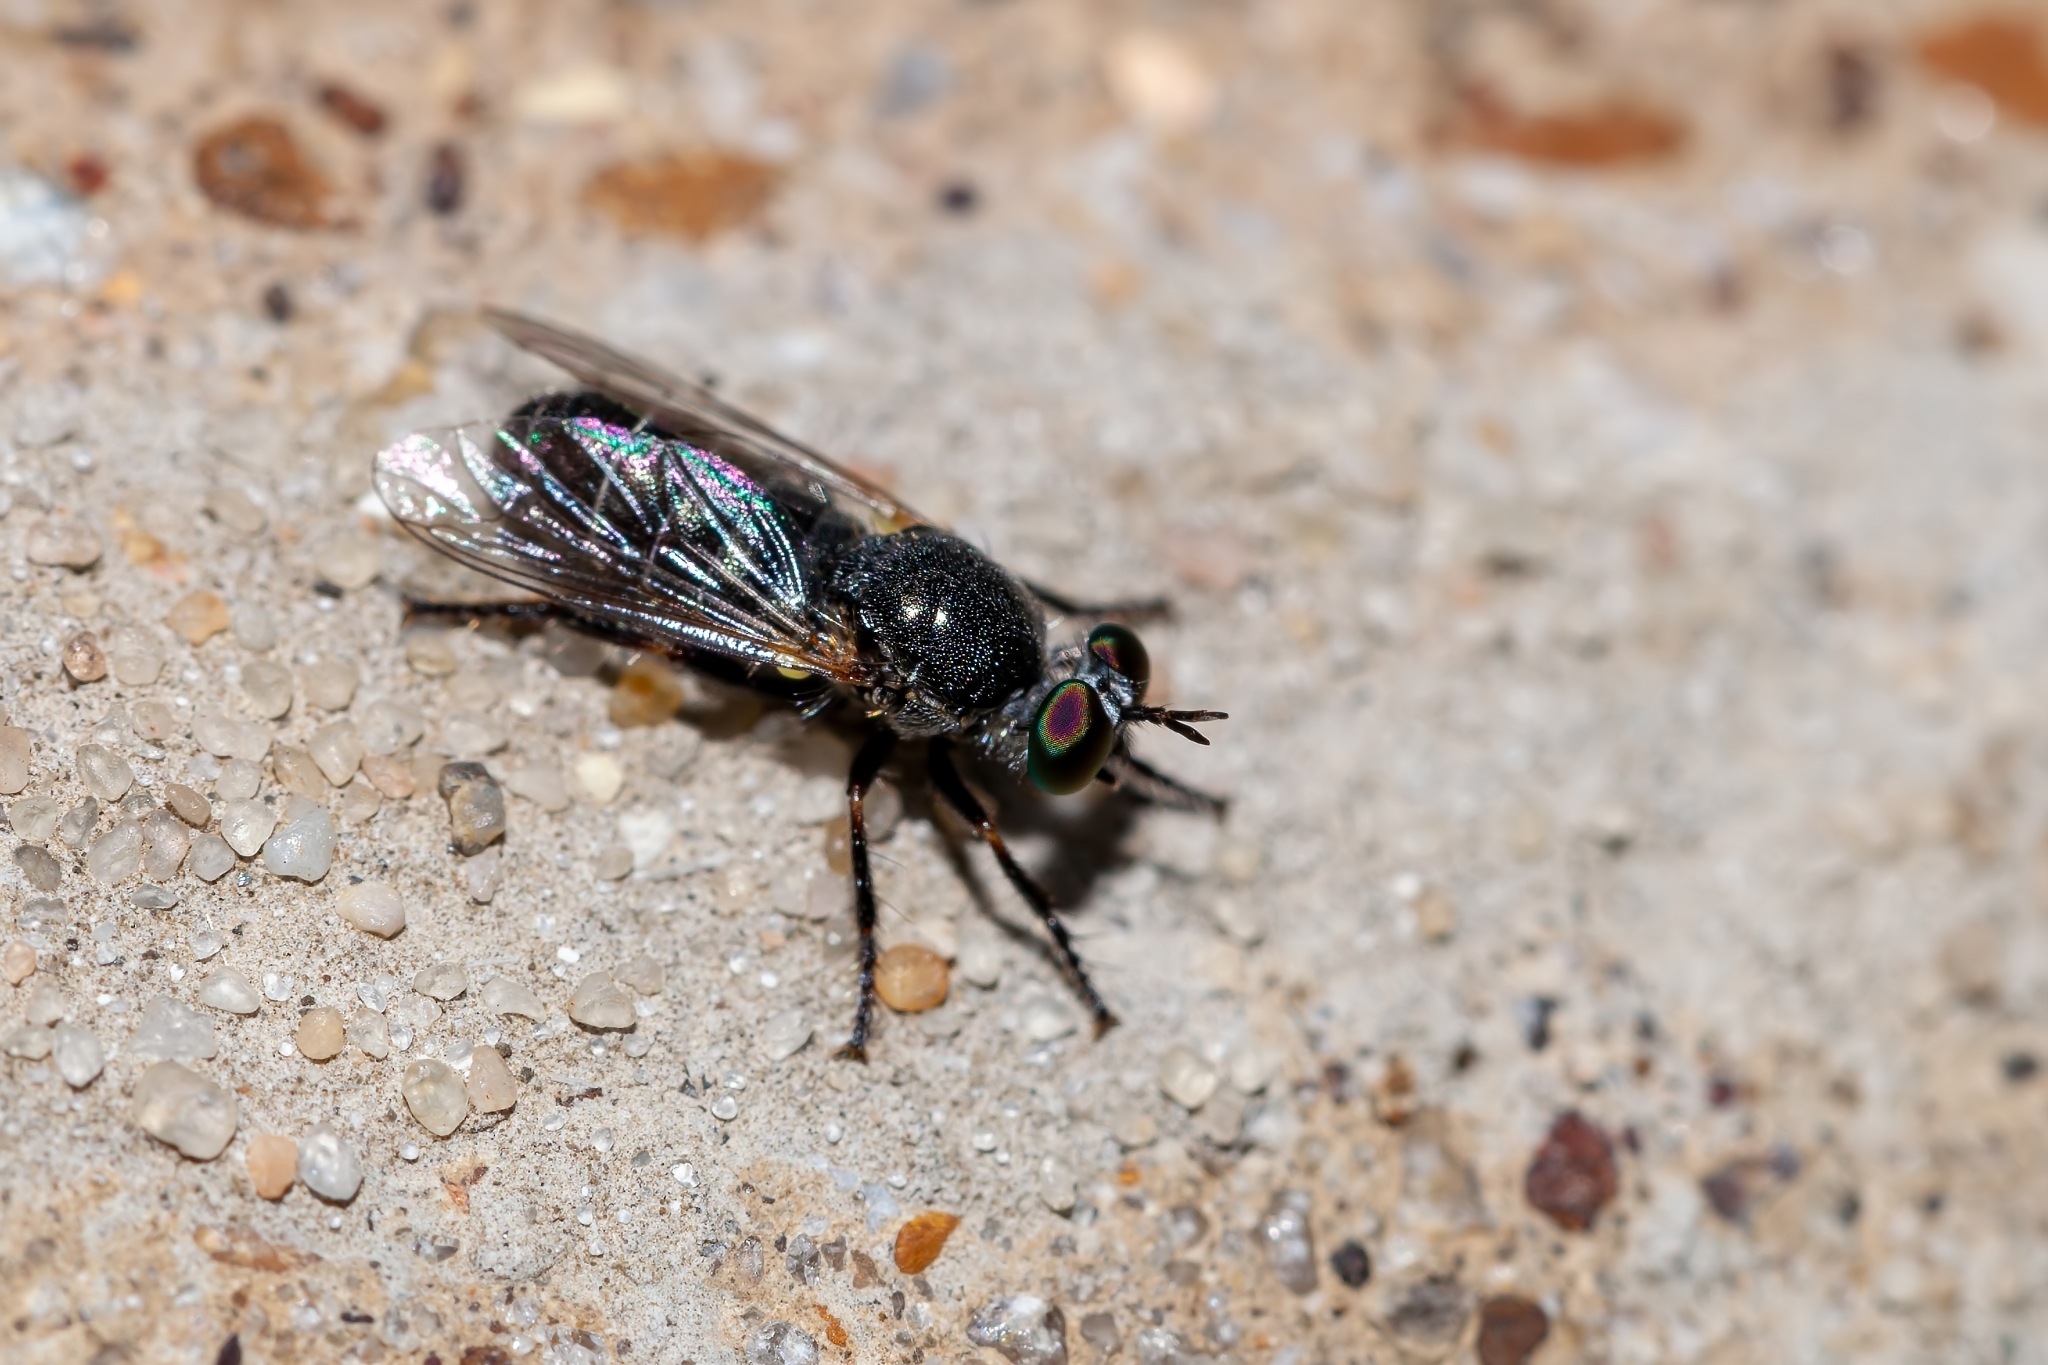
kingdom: Animalia
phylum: Arthropoda
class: Insecta
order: Diptera
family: Asilidae
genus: Atomosia
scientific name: Atomosia melanopogon
